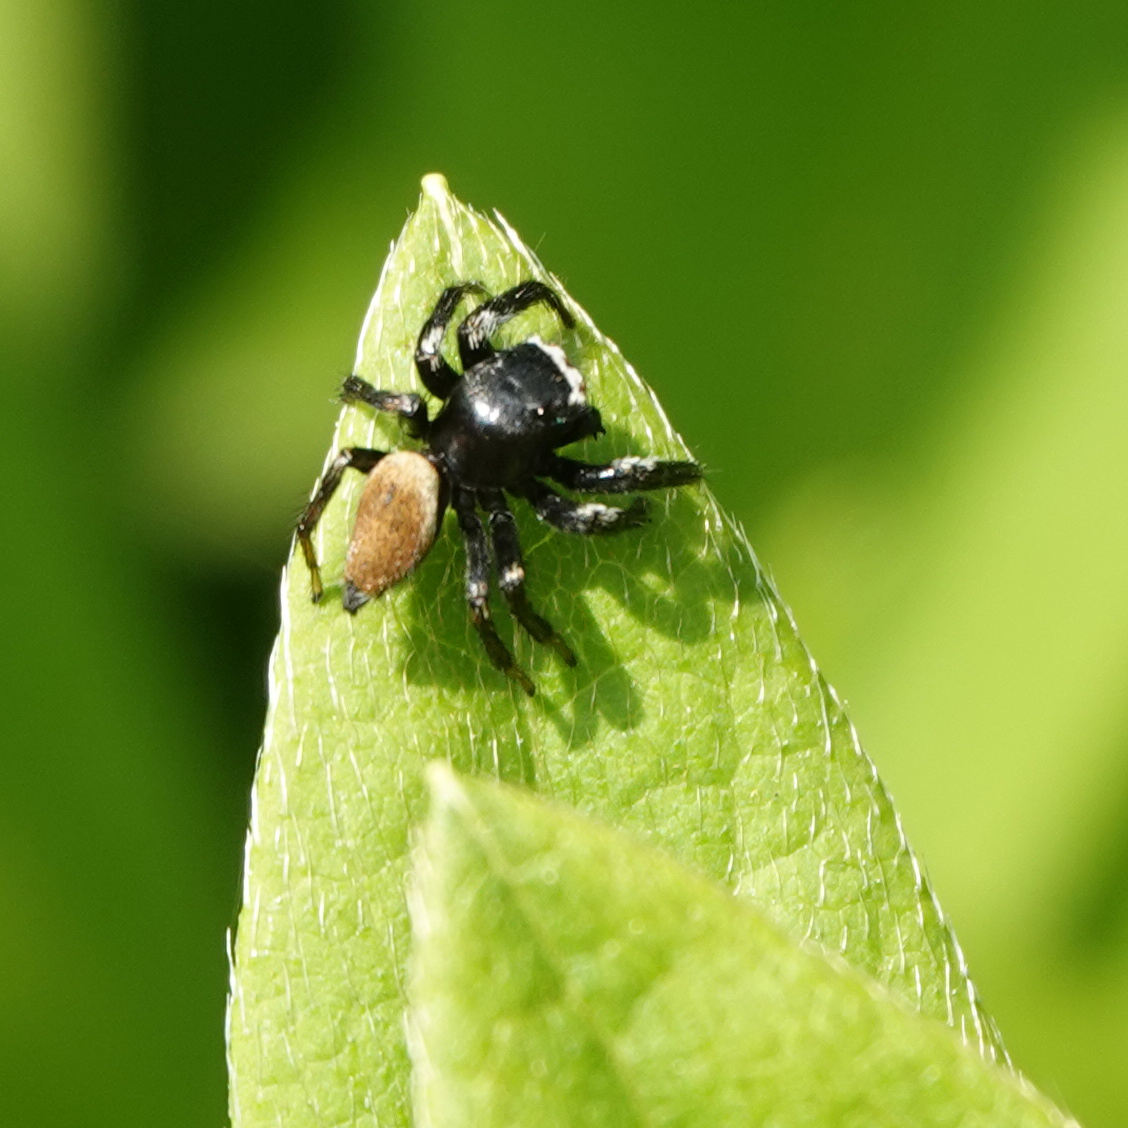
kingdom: Animalia
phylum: Arthropoda
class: Arachnida
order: Araneae
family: Salticidae
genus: Evarcha
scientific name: Evarcha albaria
